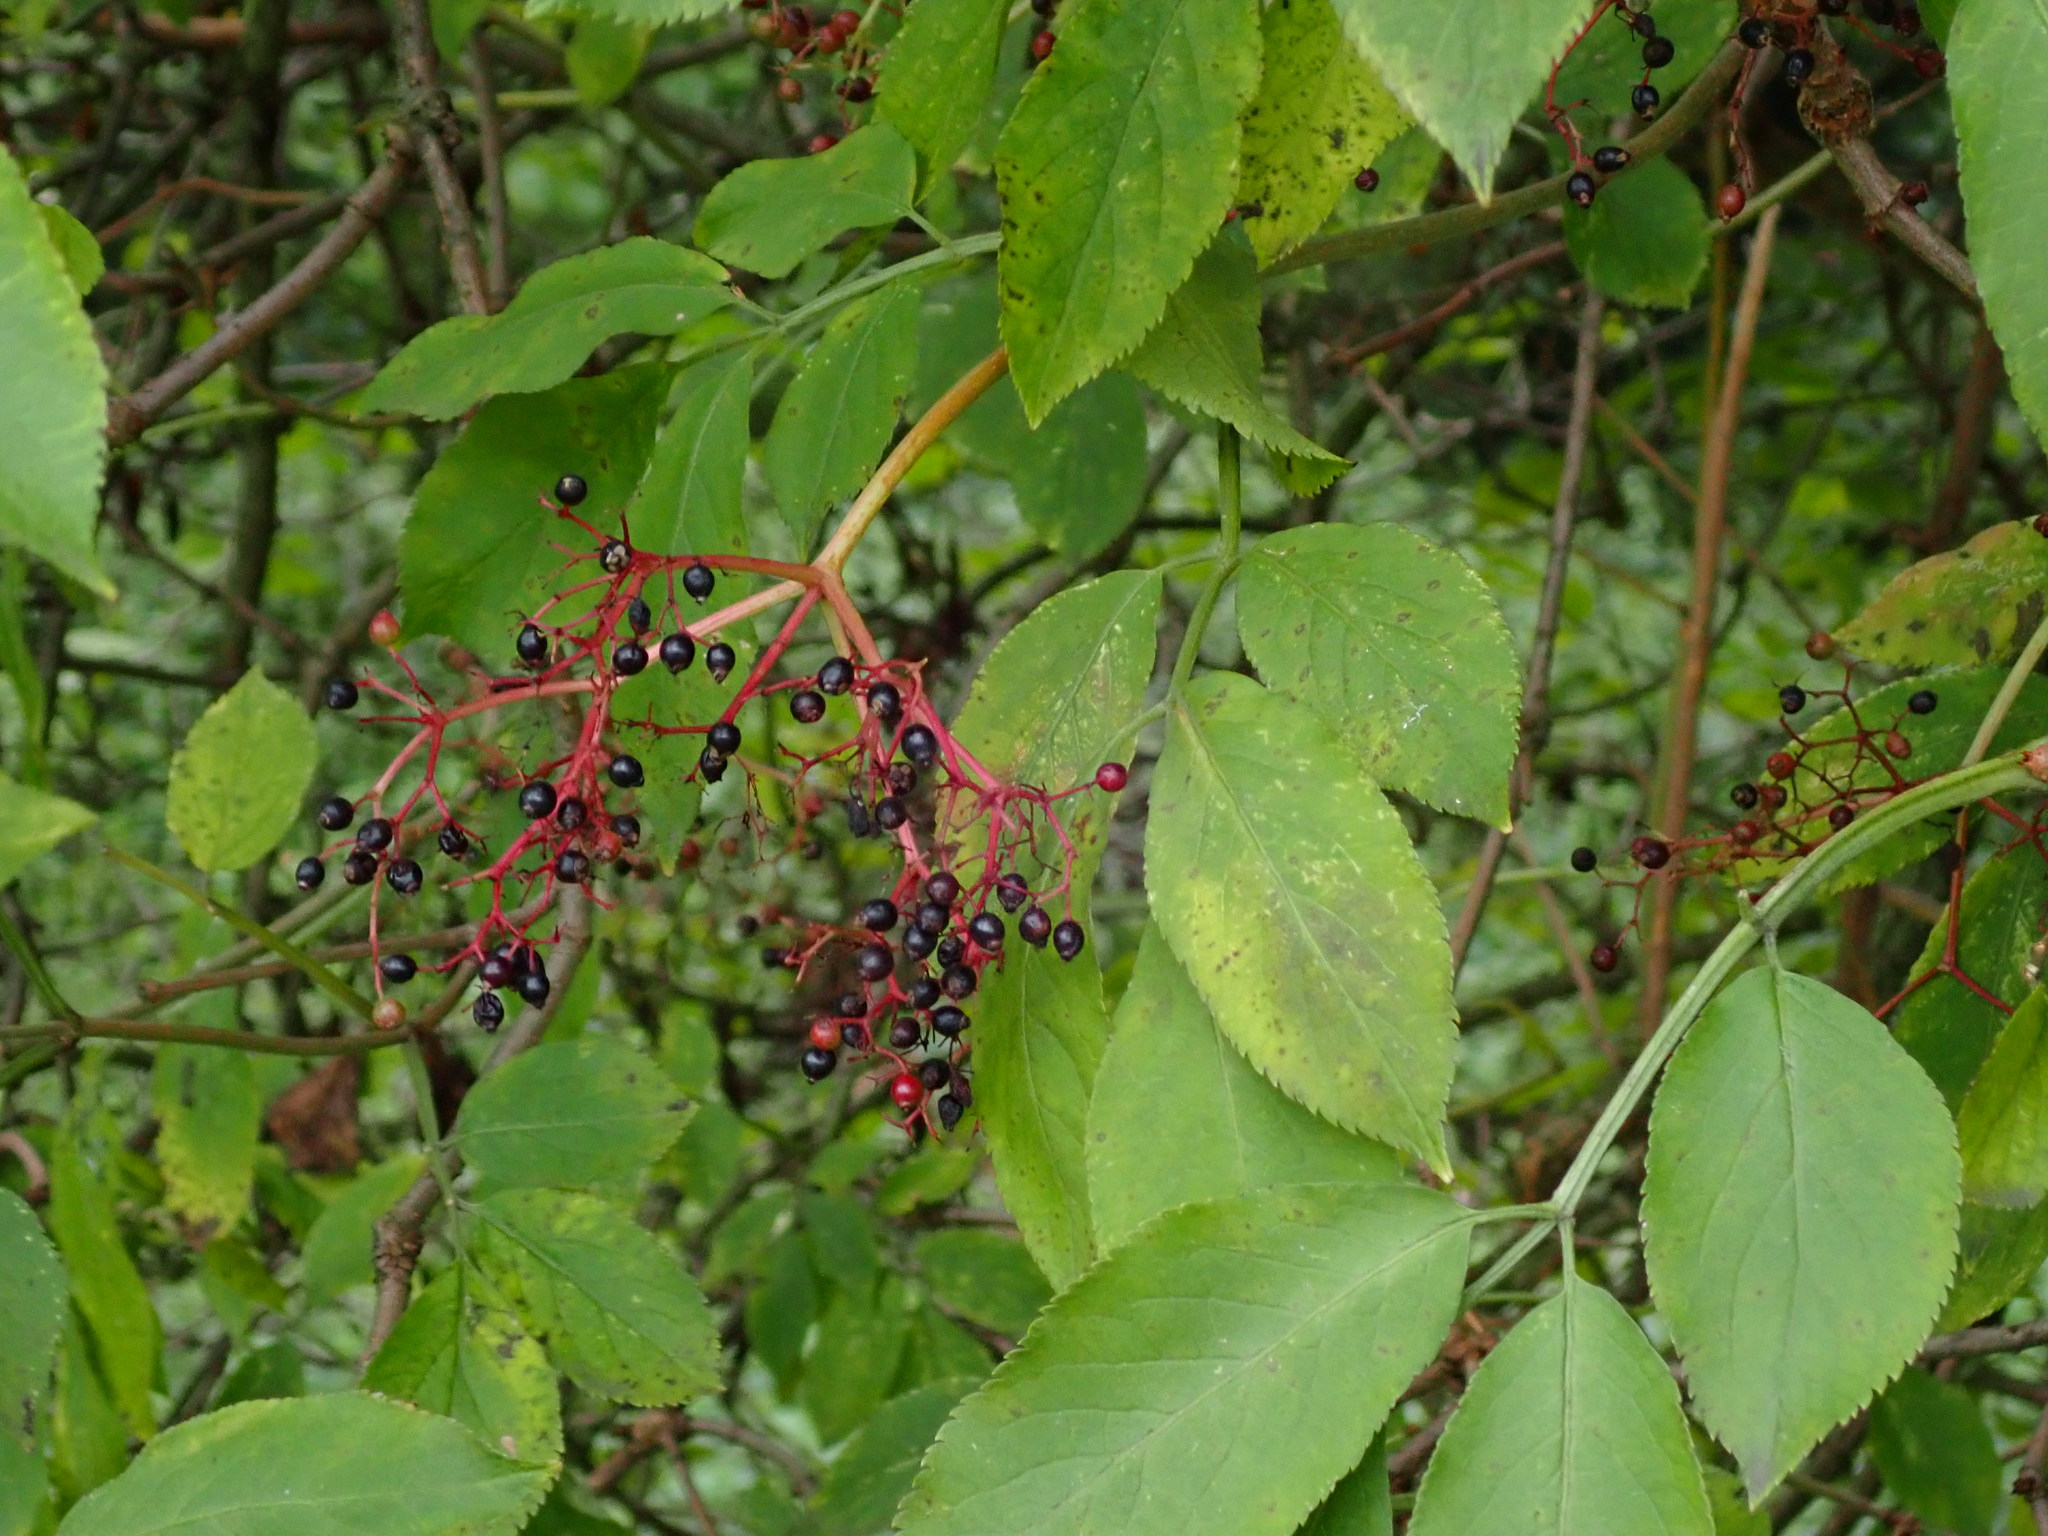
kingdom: Plantae
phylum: Tracheophyta
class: Magnoliopsida
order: Dipsacales
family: Viburnaceae
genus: Sambucus
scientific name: Sambucus nigra
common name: Elder
